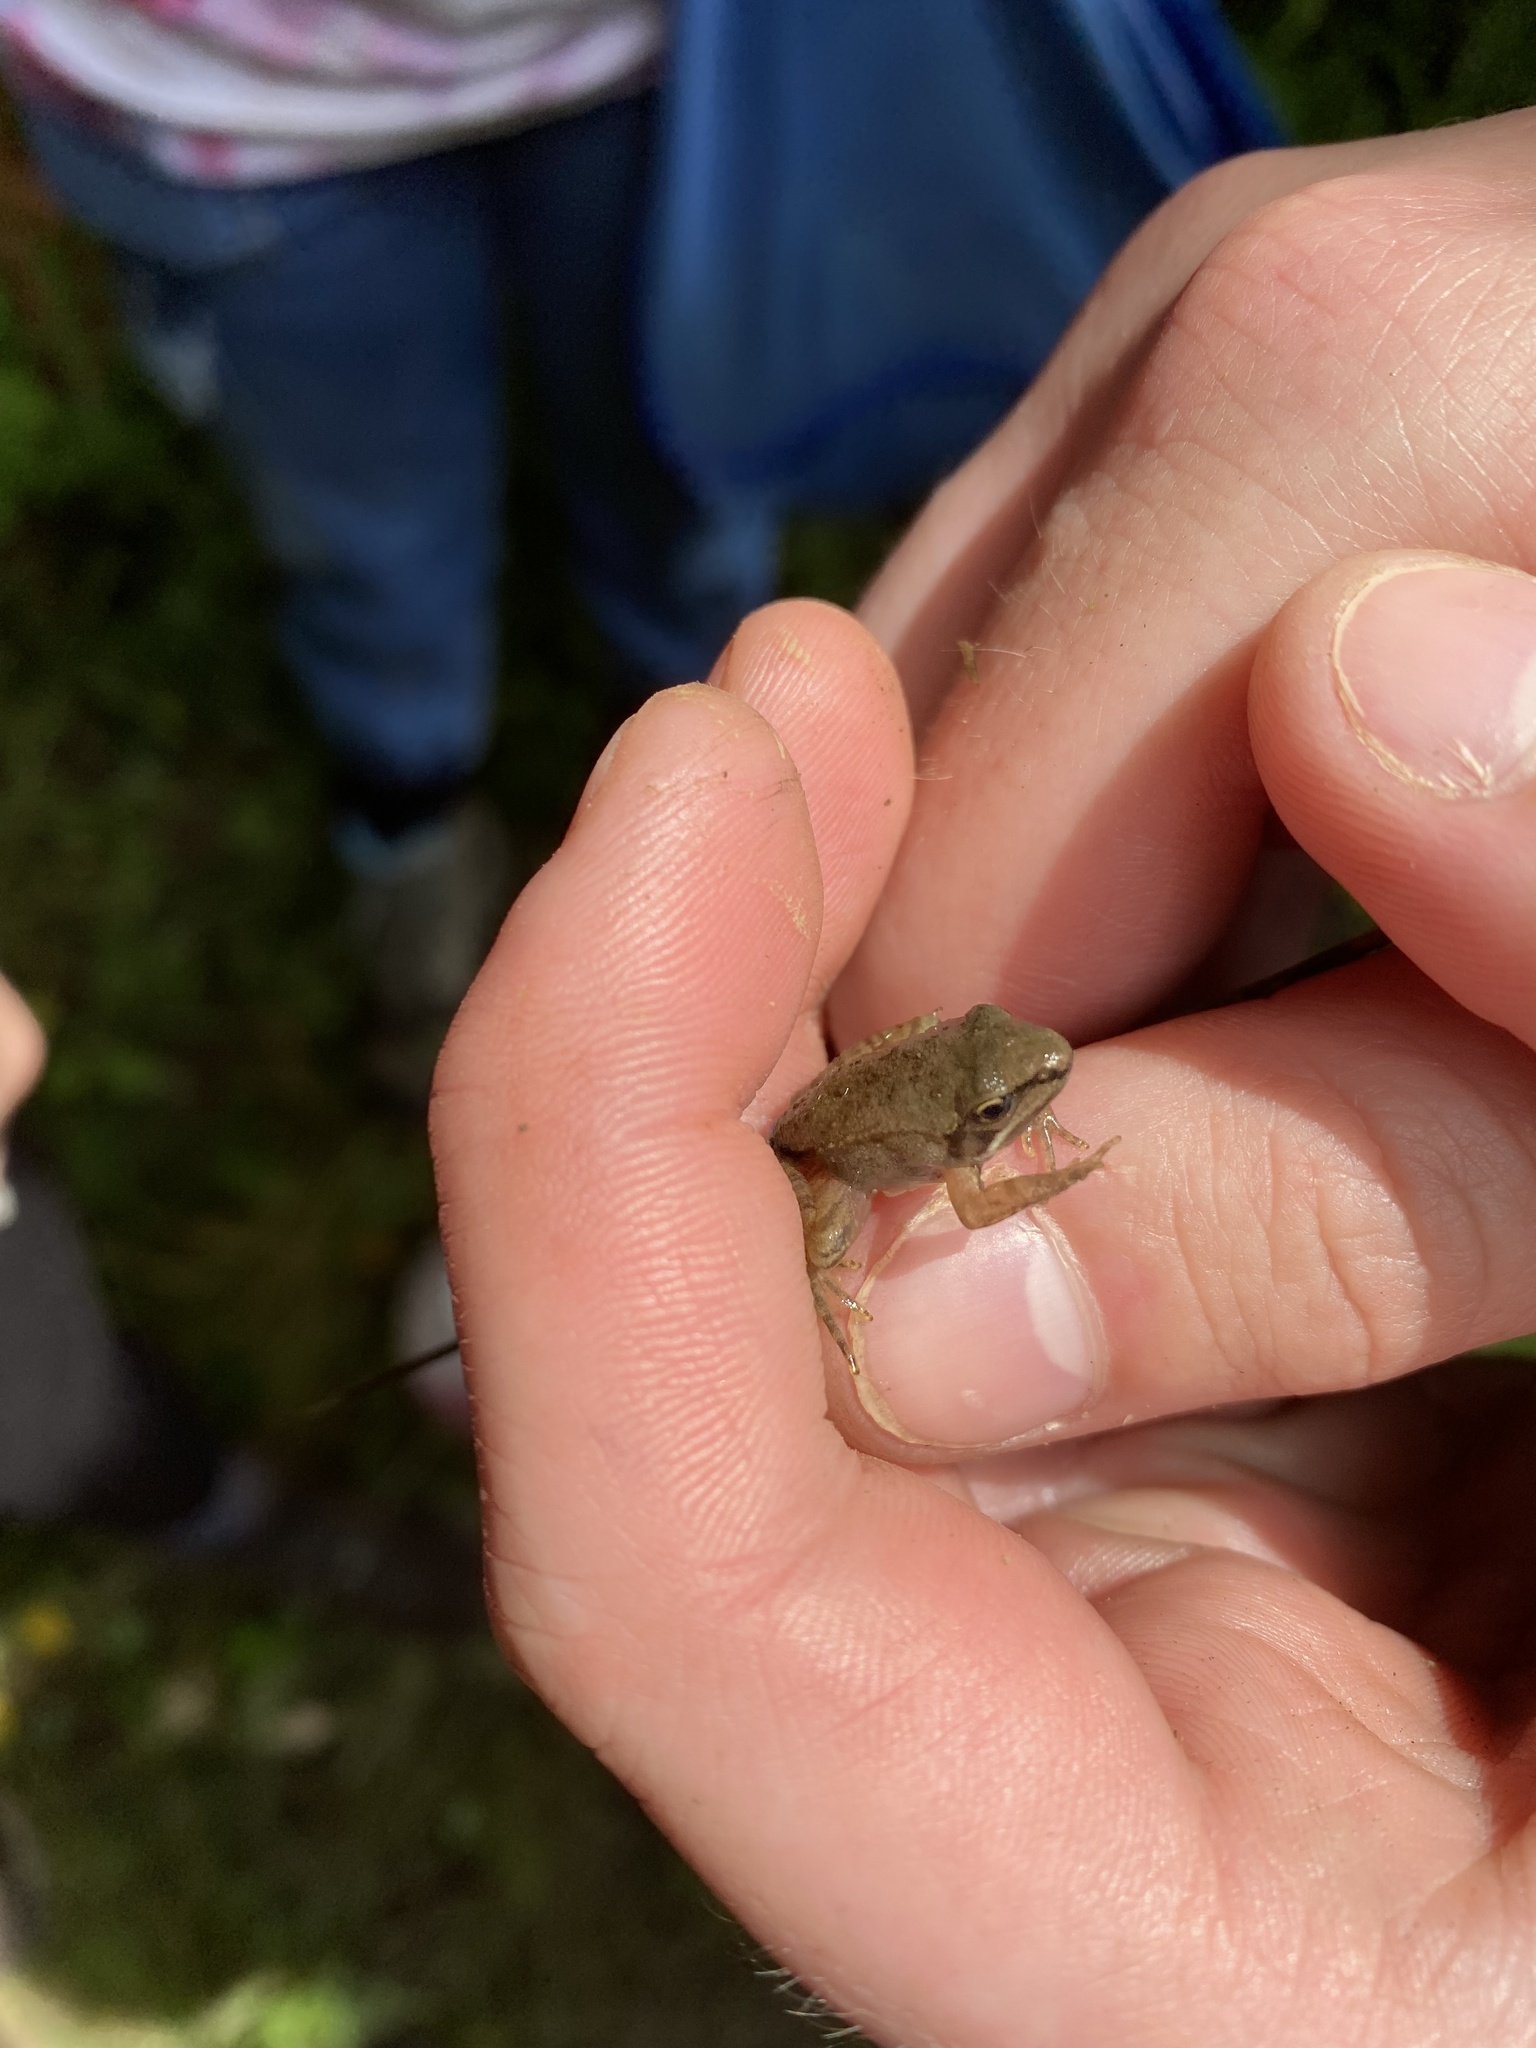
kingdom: Animalia
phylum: Chordata
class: Amphibia
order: Anura
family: Ranidae
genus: Lithobates
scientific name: Lithobates sylvaticus
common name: Wood frog
